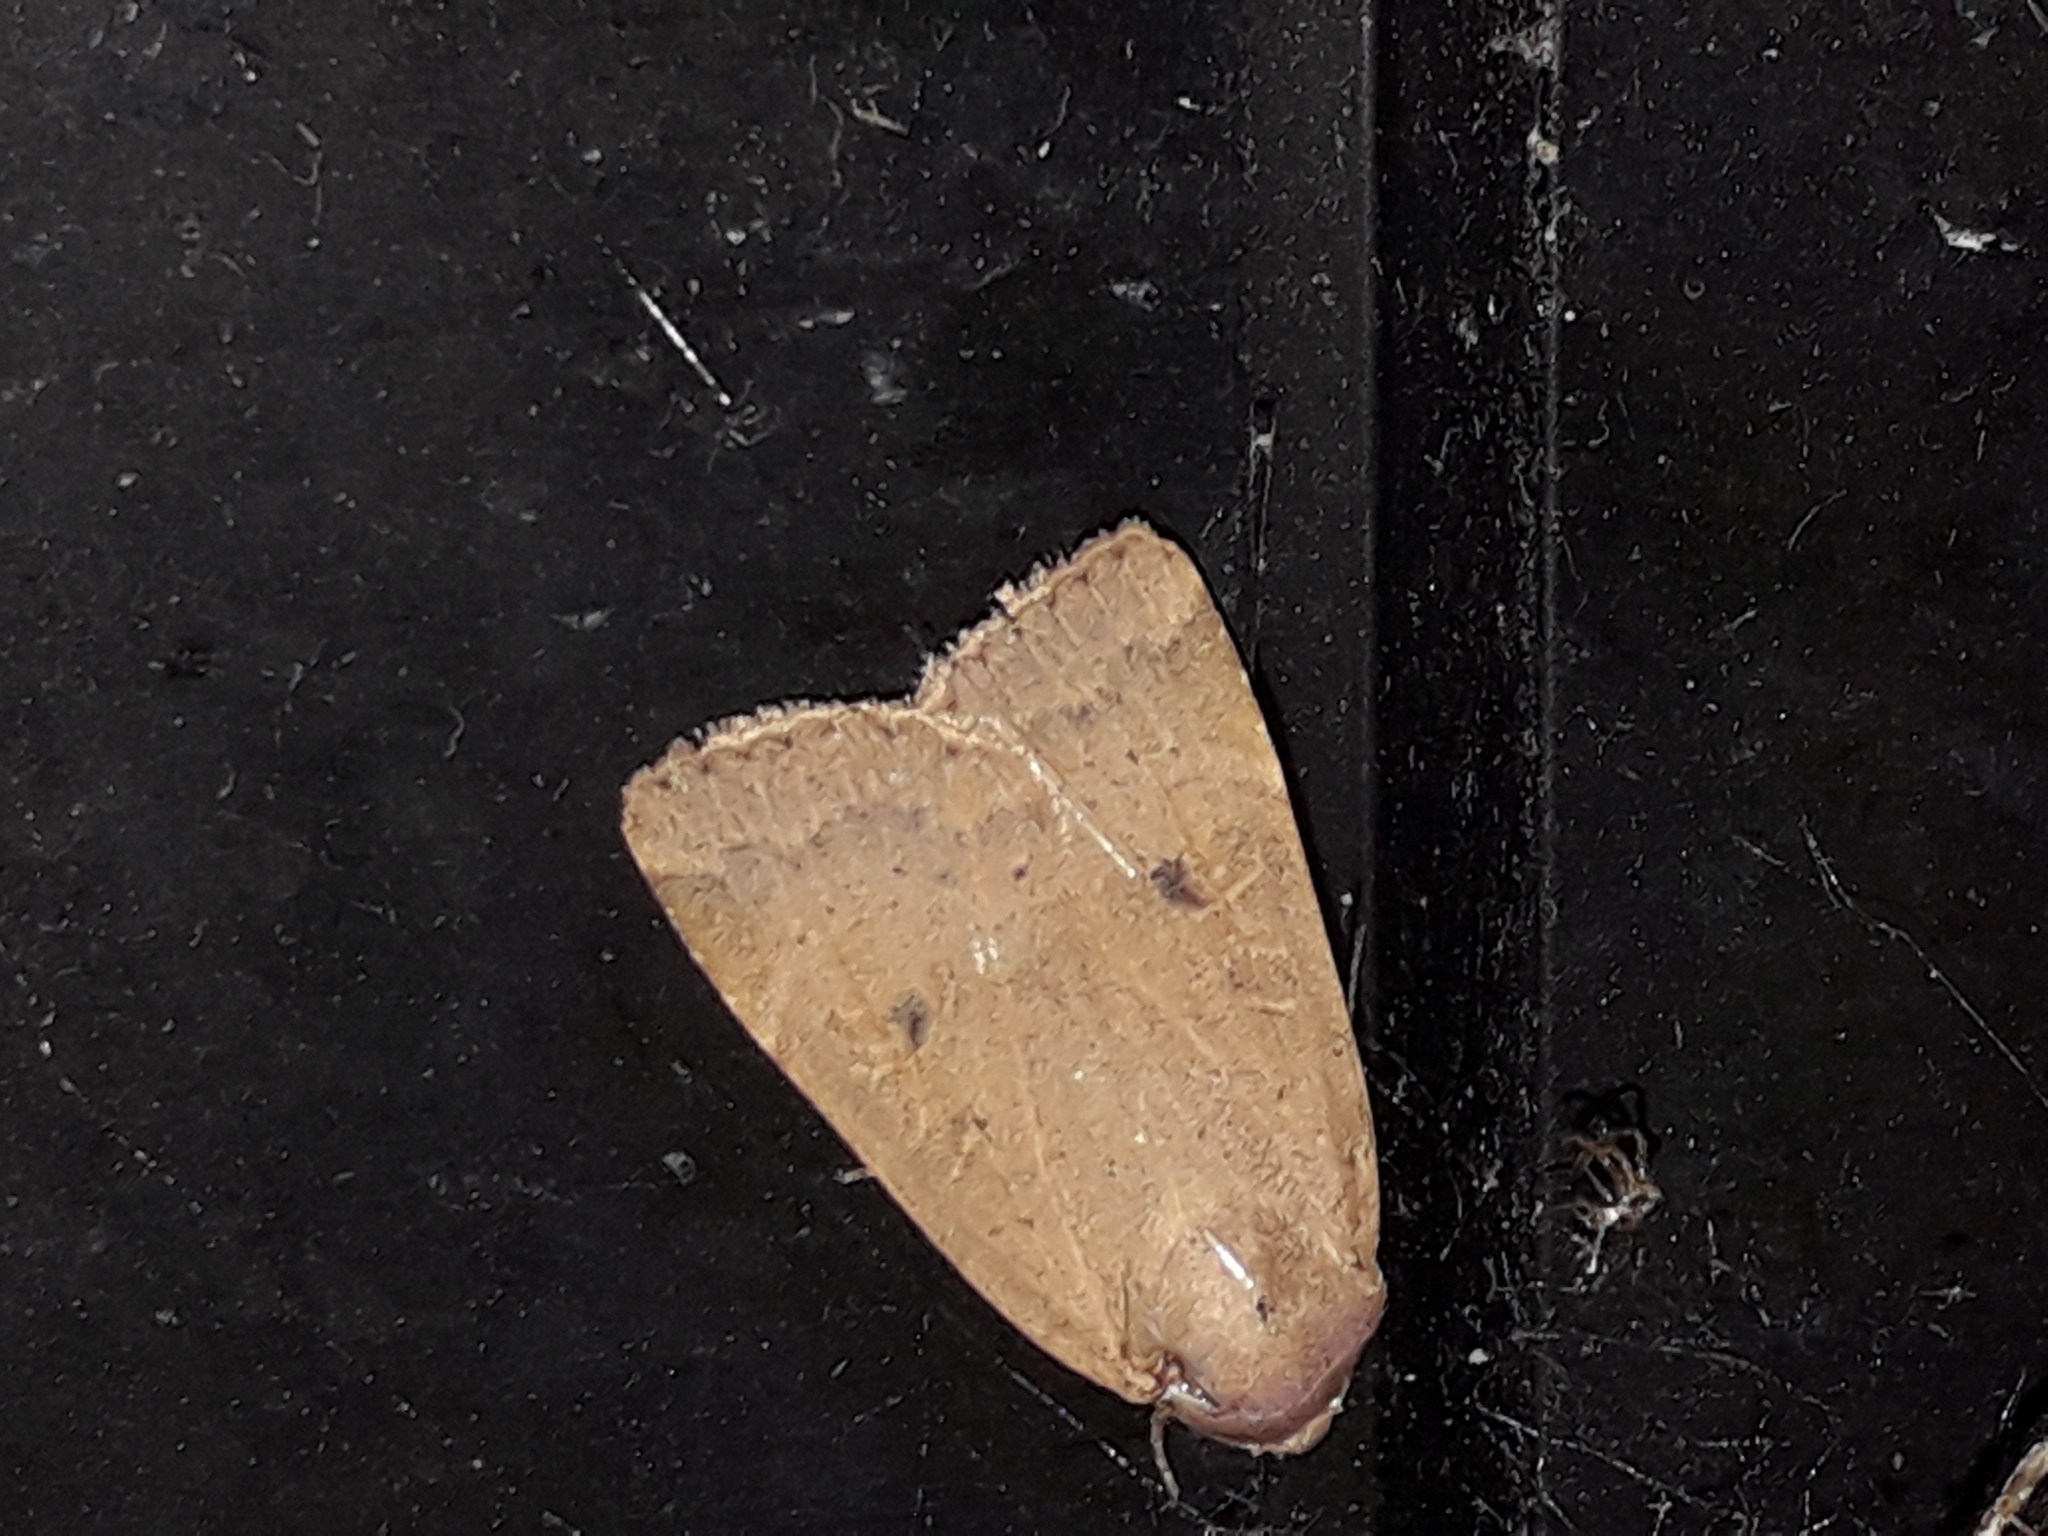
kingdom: Animalia
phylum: Arthropoda
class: Insecta
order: Lepidoptera
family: Noctuidae
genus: Noctua
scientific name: Noctua comes
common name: Lesser yellow underwing
